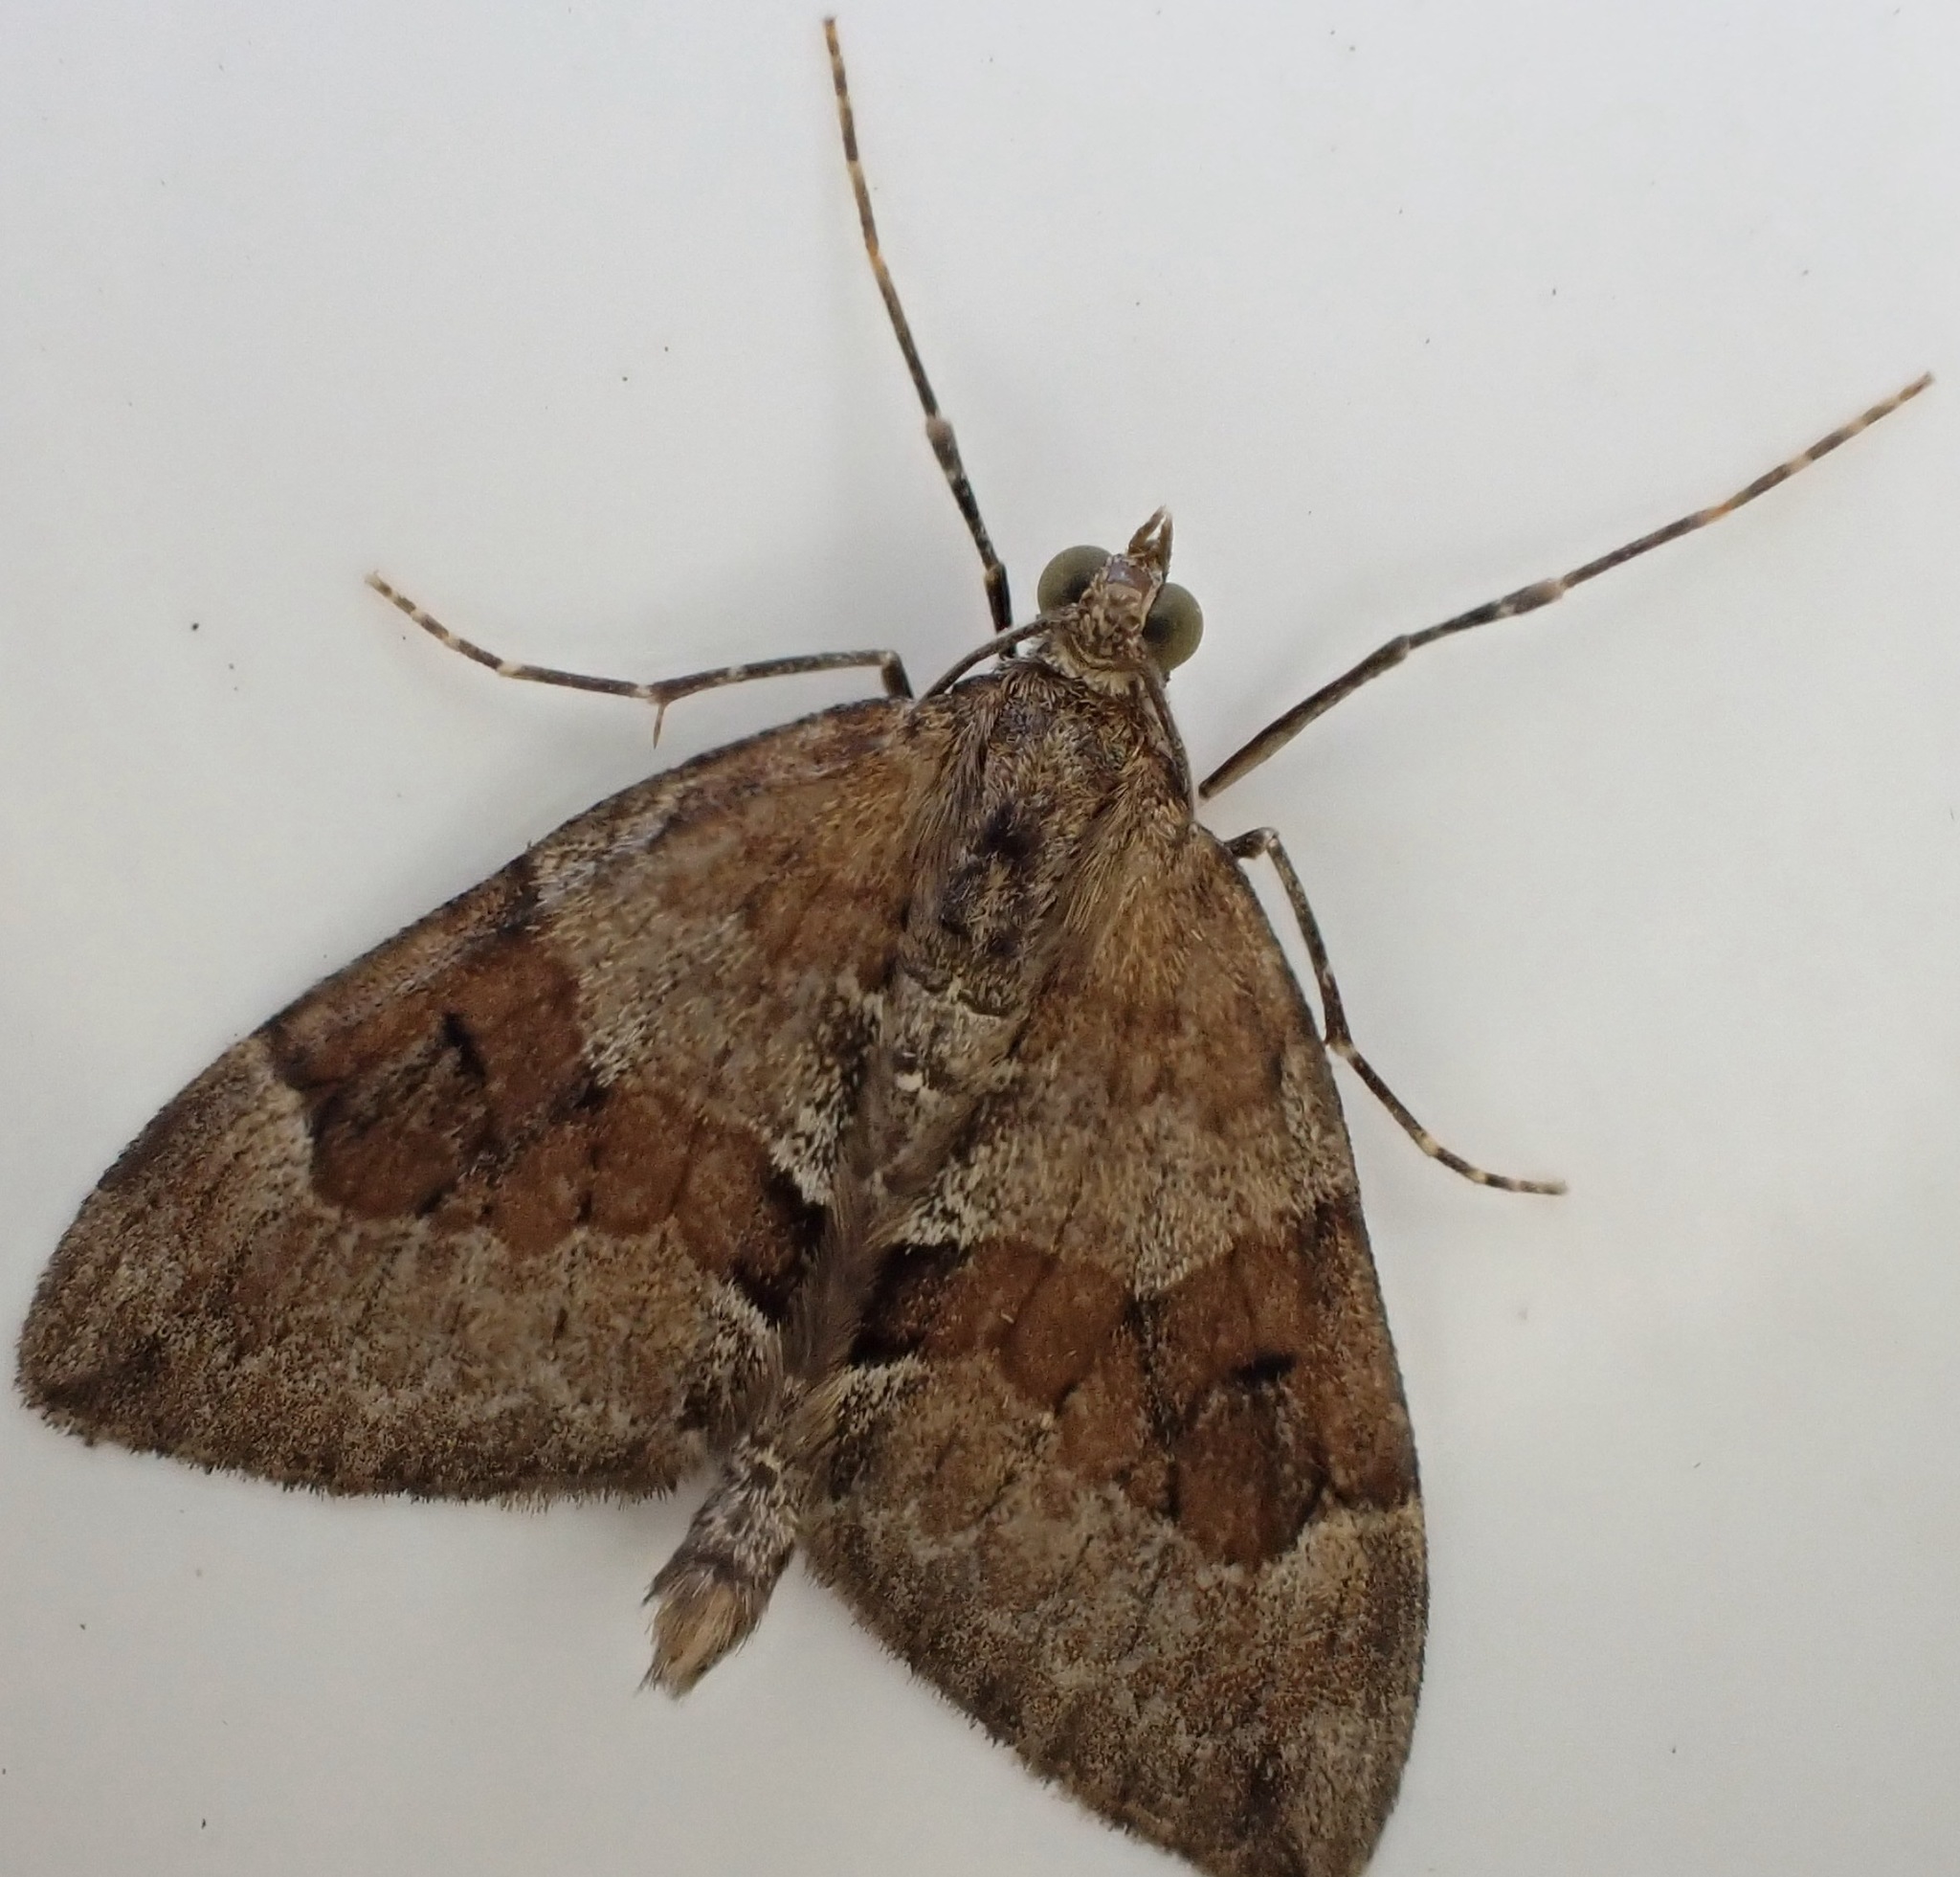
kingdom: Animalia
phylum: Arthropoda
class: Insecta
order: Lepidoptera
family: Geometridae
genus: Thera
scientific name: Thera obeliscata
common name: Grey pine carpet
